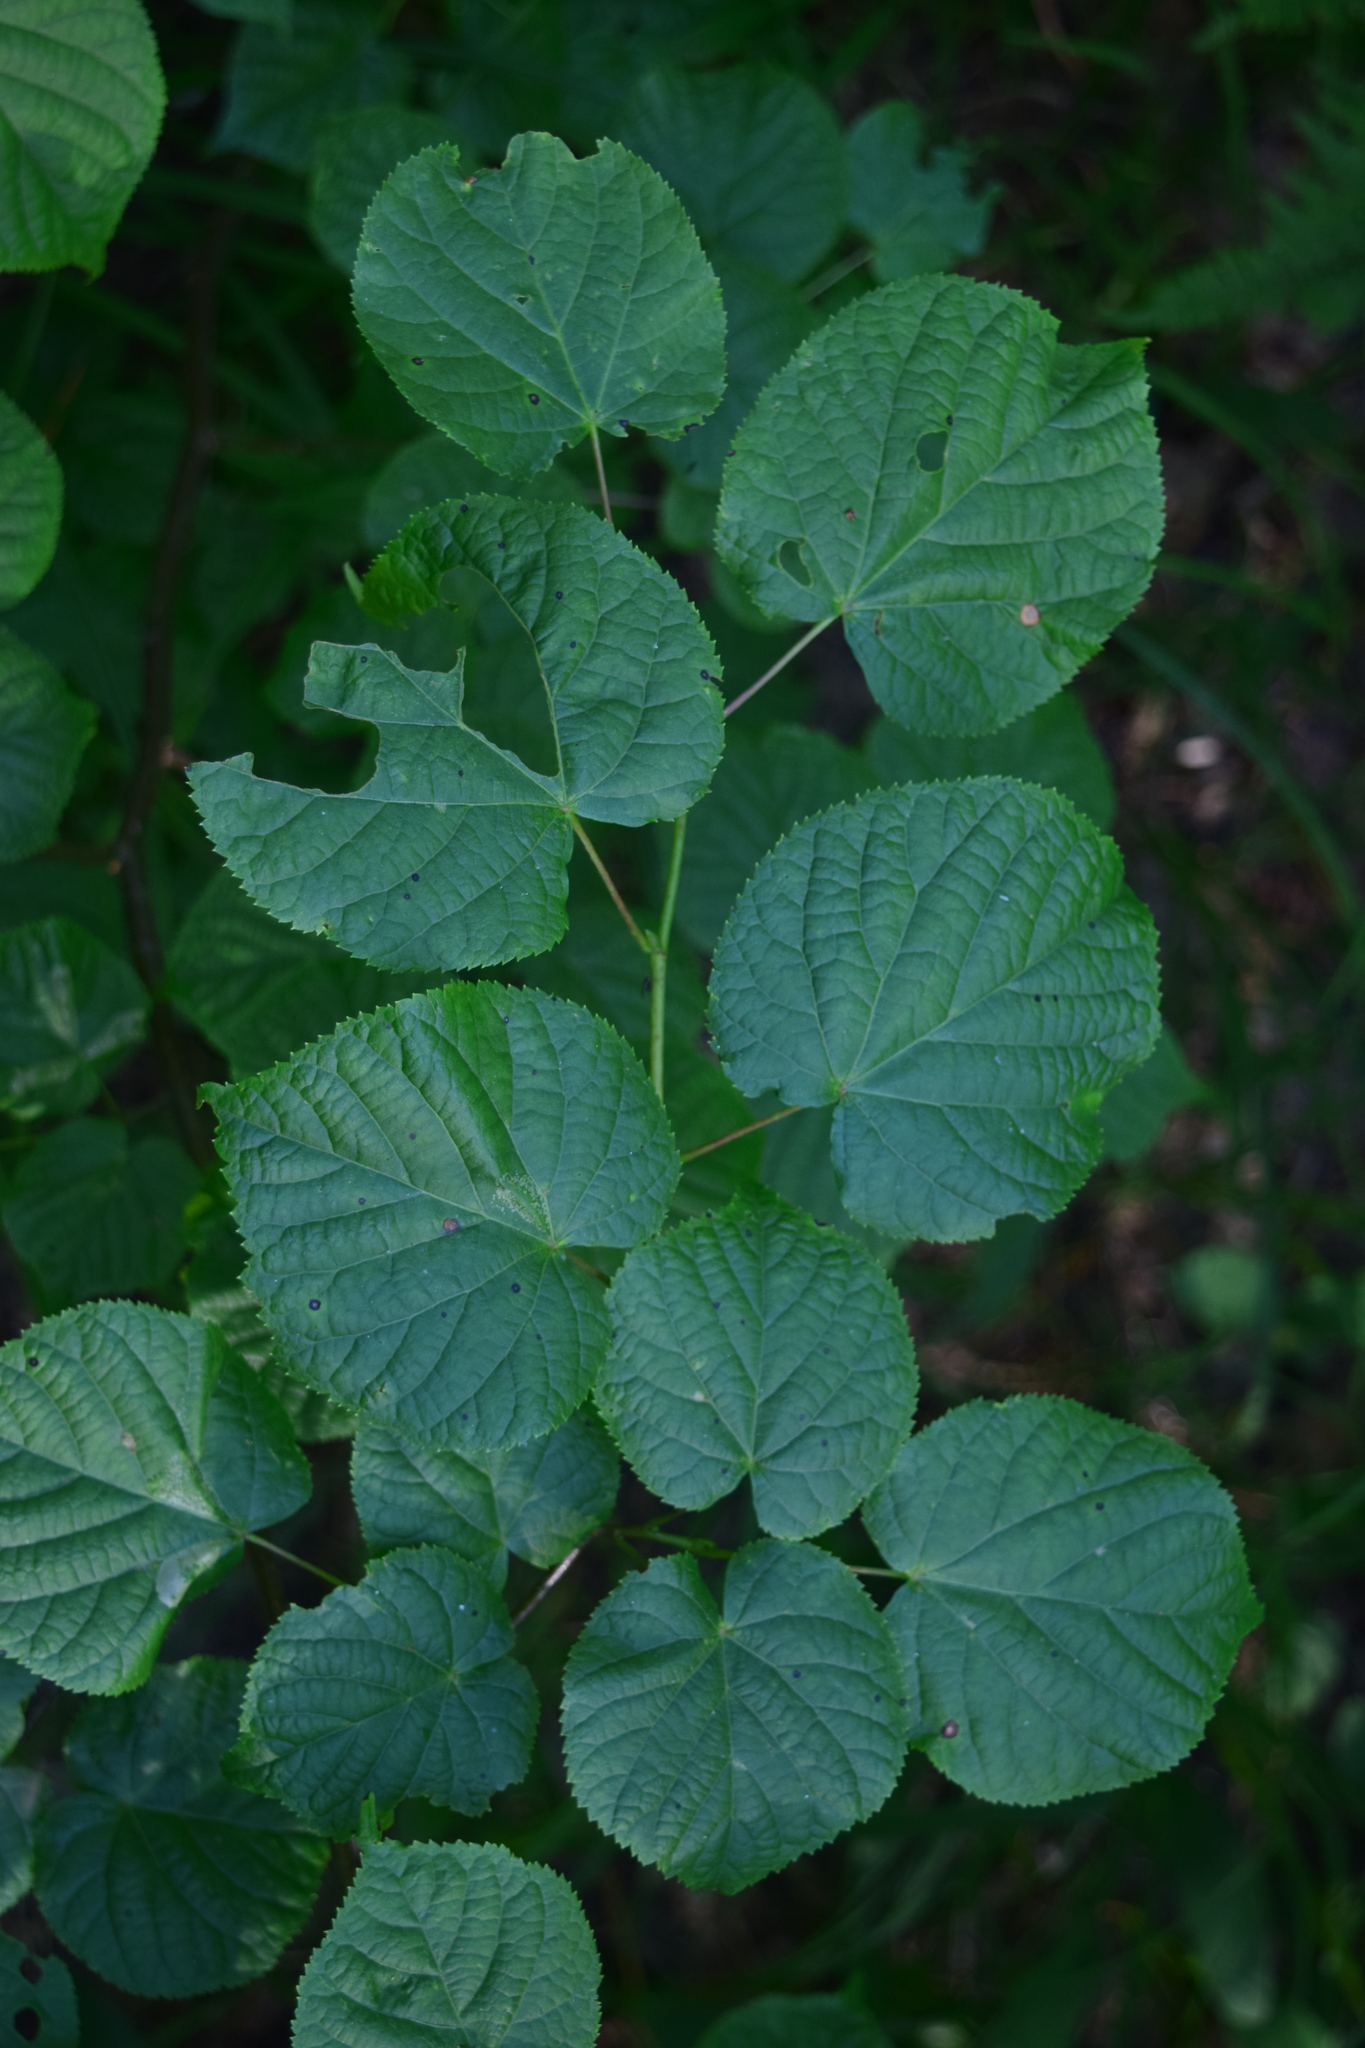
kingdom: Plantae
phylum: Tracheophyta
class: Magnoliopsida
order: Malvales
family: Malvaceae
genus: Tilia
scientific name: Tilia cordata
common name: Small-leaved lime
